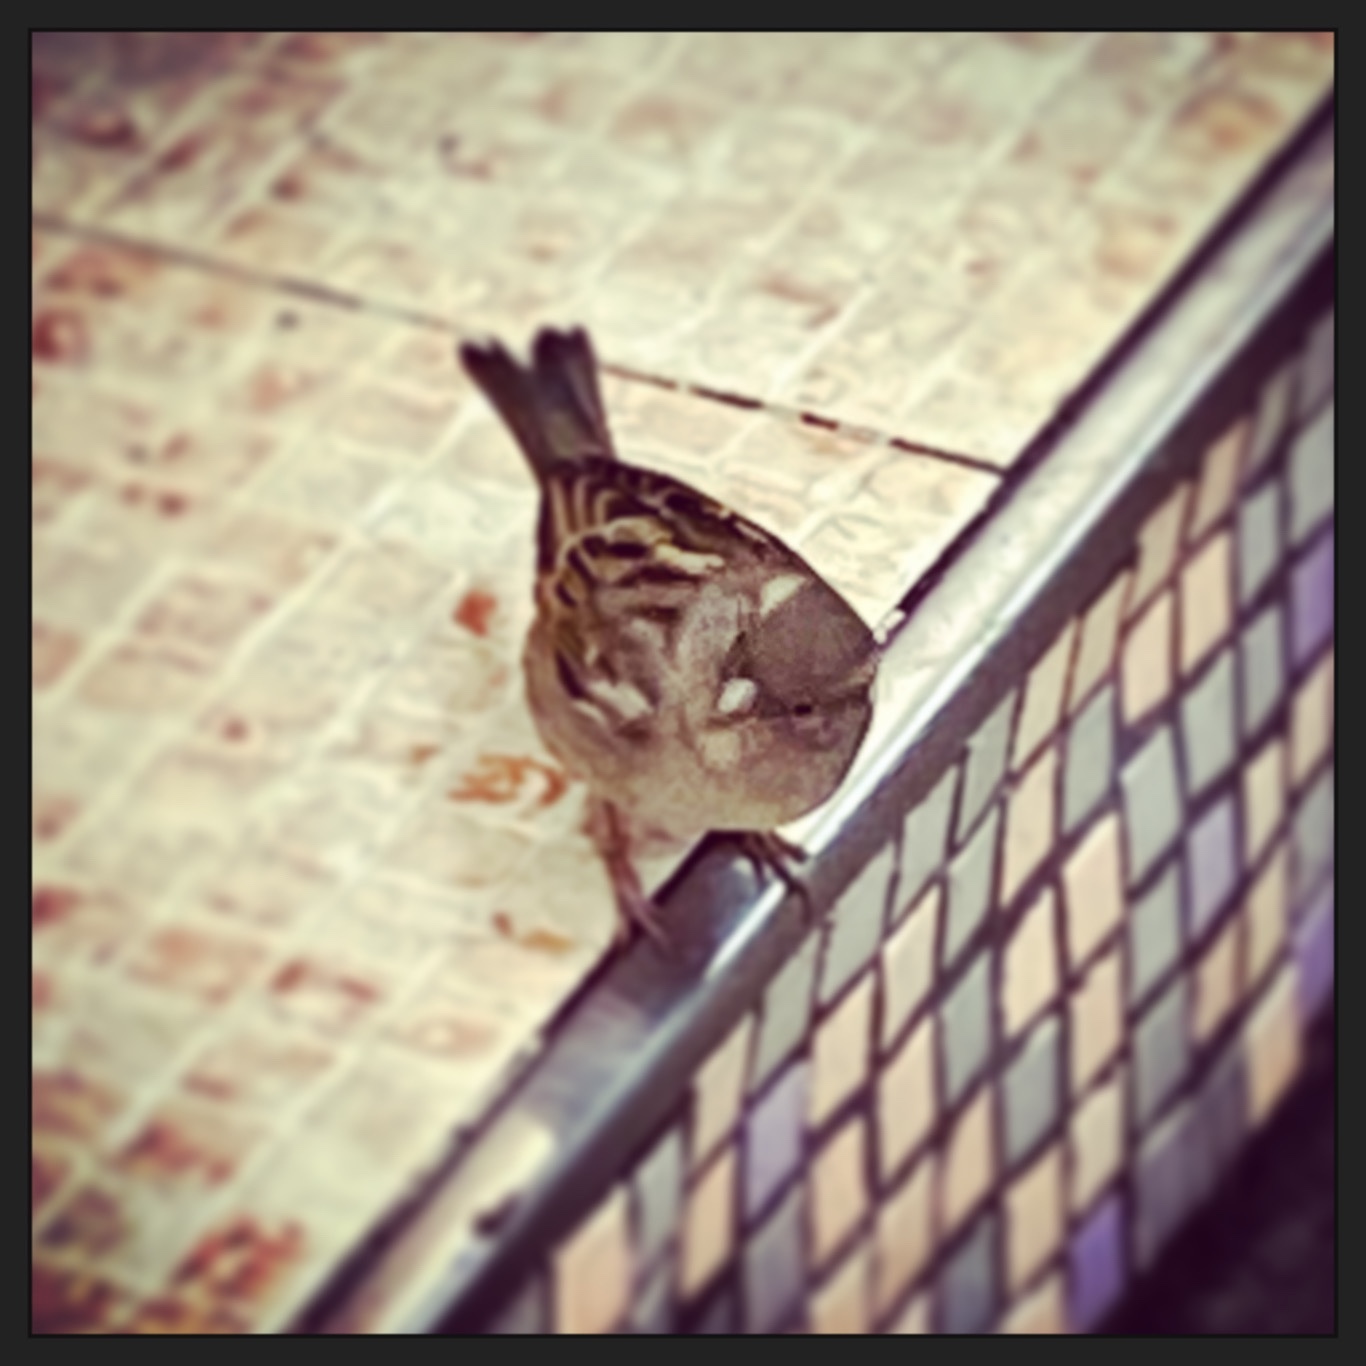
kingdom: Animalia
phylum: Chordata
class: Aves
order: Passeriformes
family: Passeridae
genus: Passer
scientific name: Passer italiae
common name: Italian sparrow
